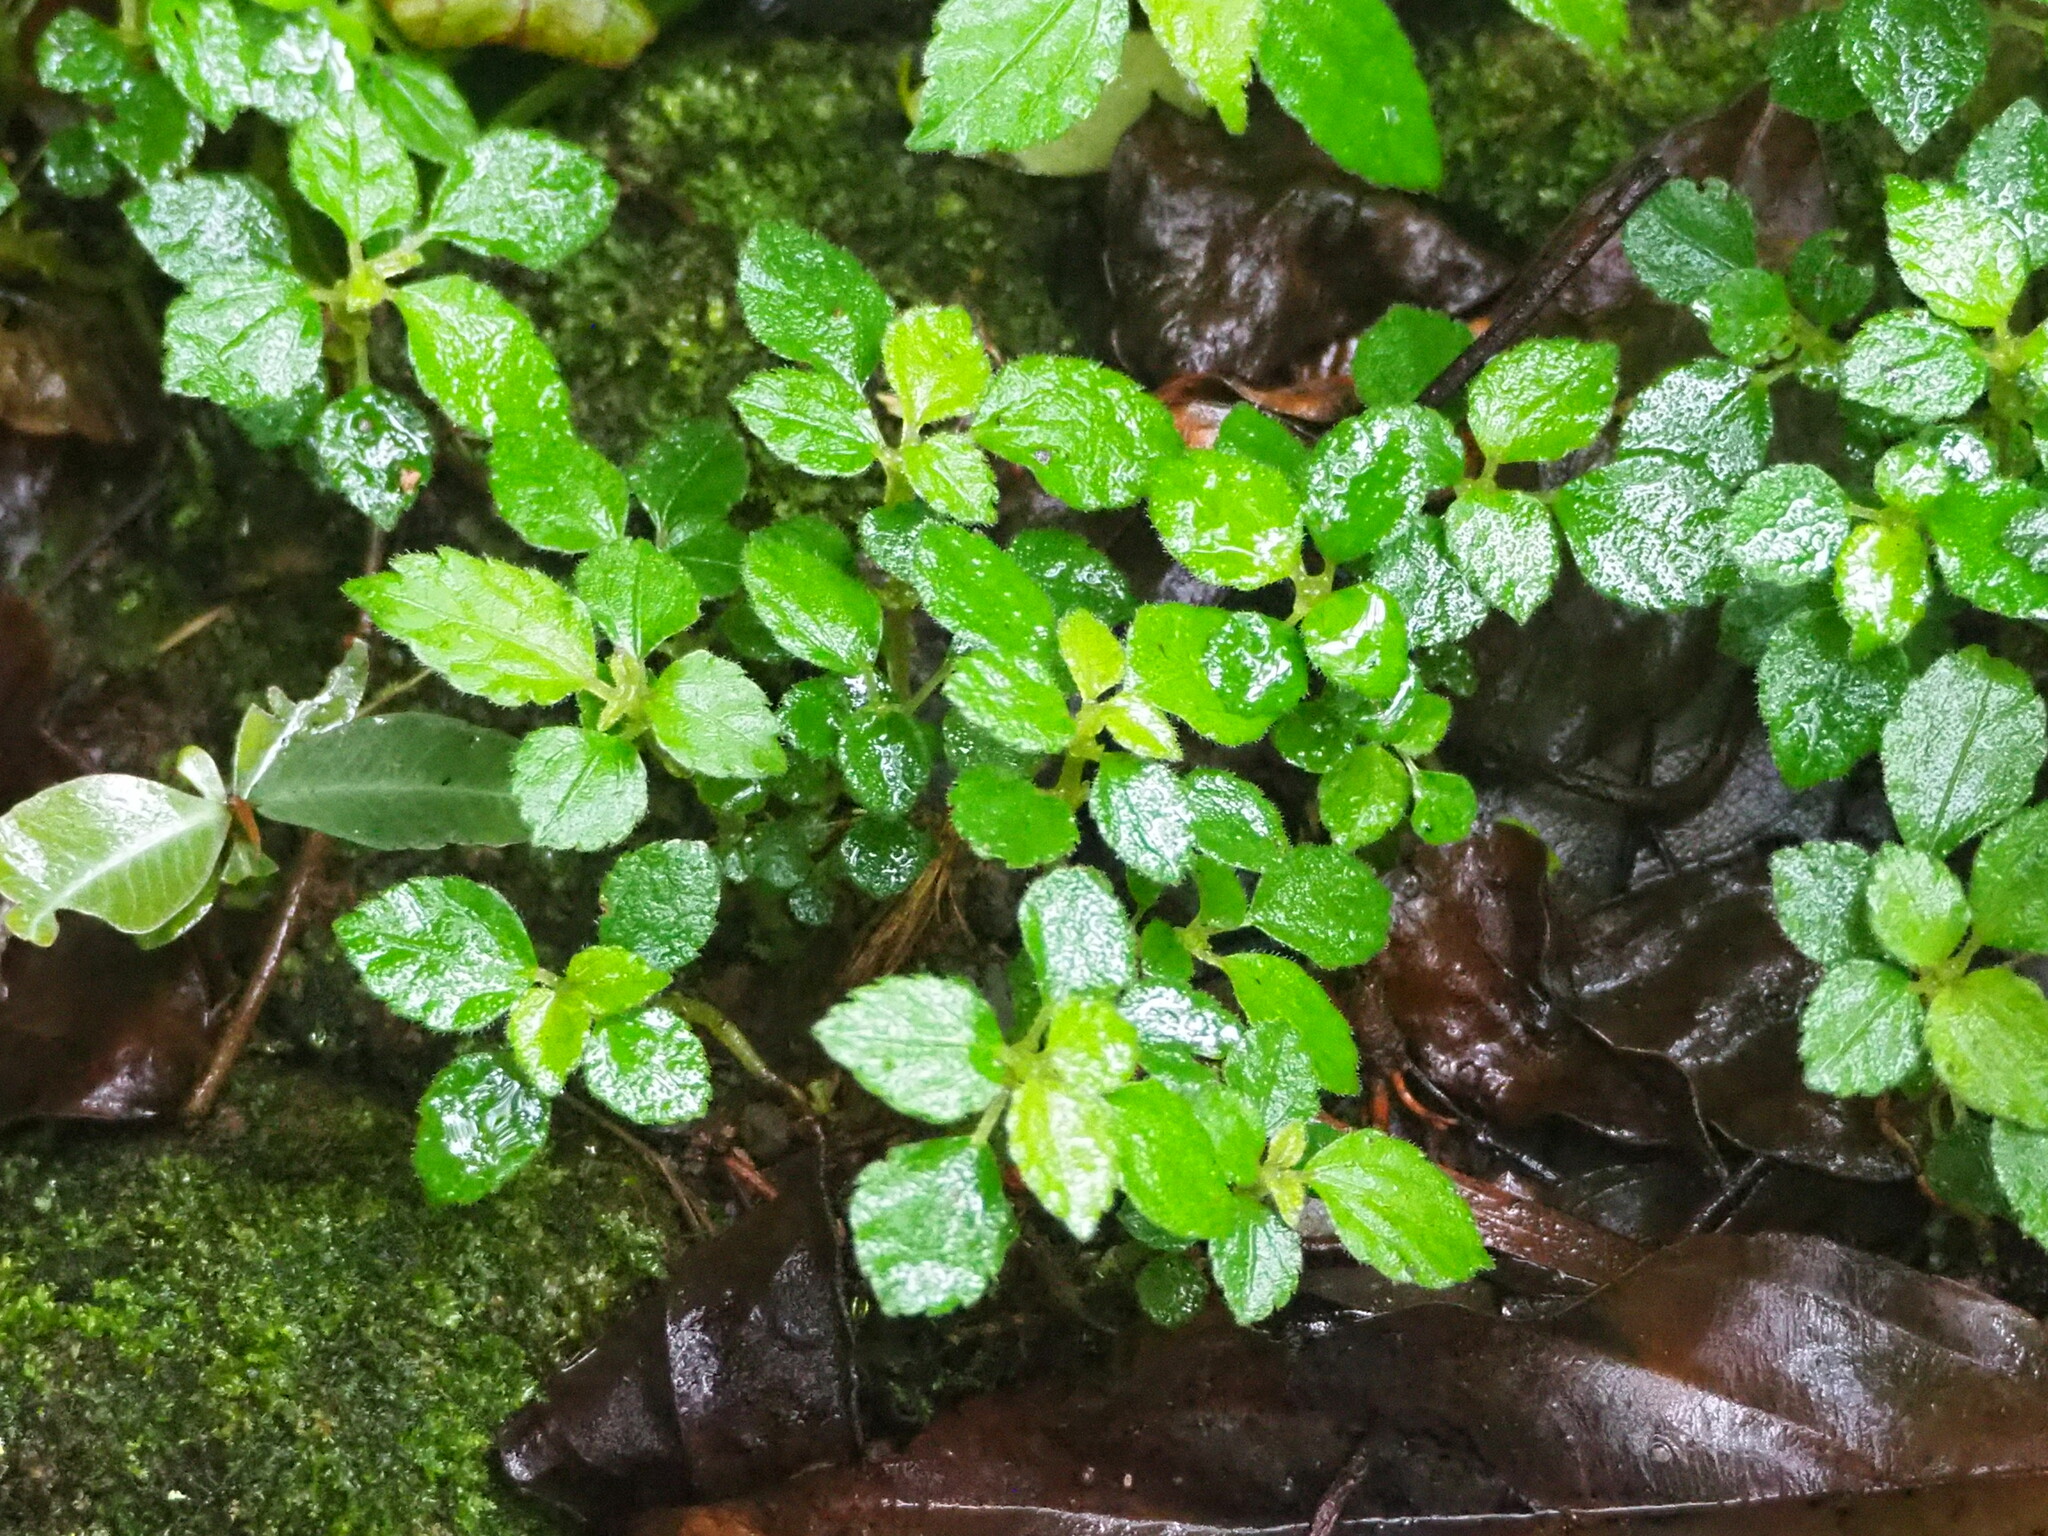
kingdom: Plantae
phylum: Tracheophyta
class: Magnoliopsida
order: Rosales
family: Urticaceae
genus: Pilea
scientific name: Pilea brevicornuta
